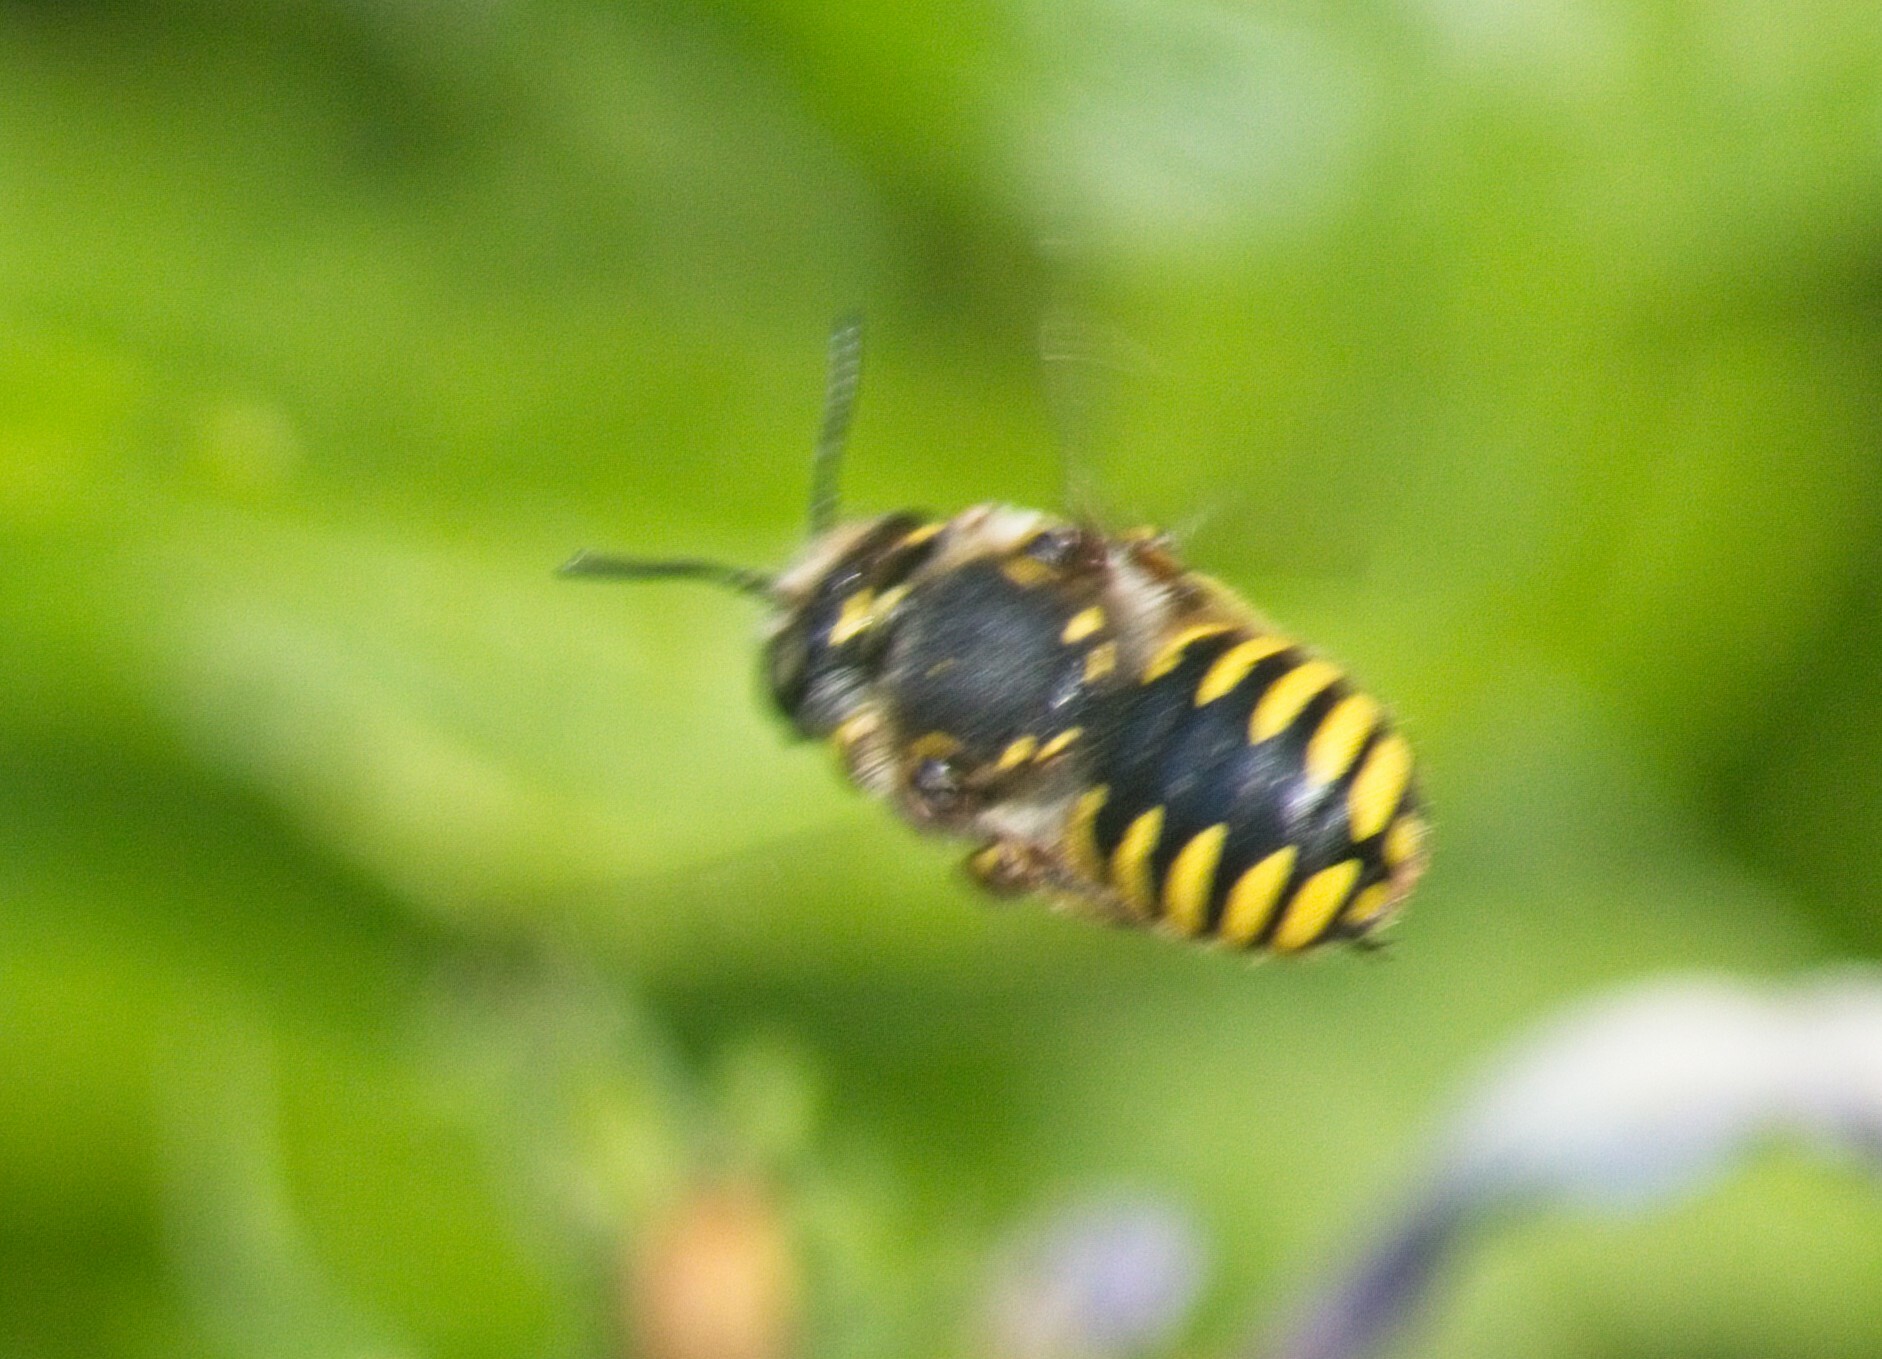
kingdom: Animalia
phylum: Arthropoda
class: Insecta
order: Hymenoptera
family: Megachilidae
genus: Anthidium
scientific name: Anthidium manicatum
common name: Wool carder bee
